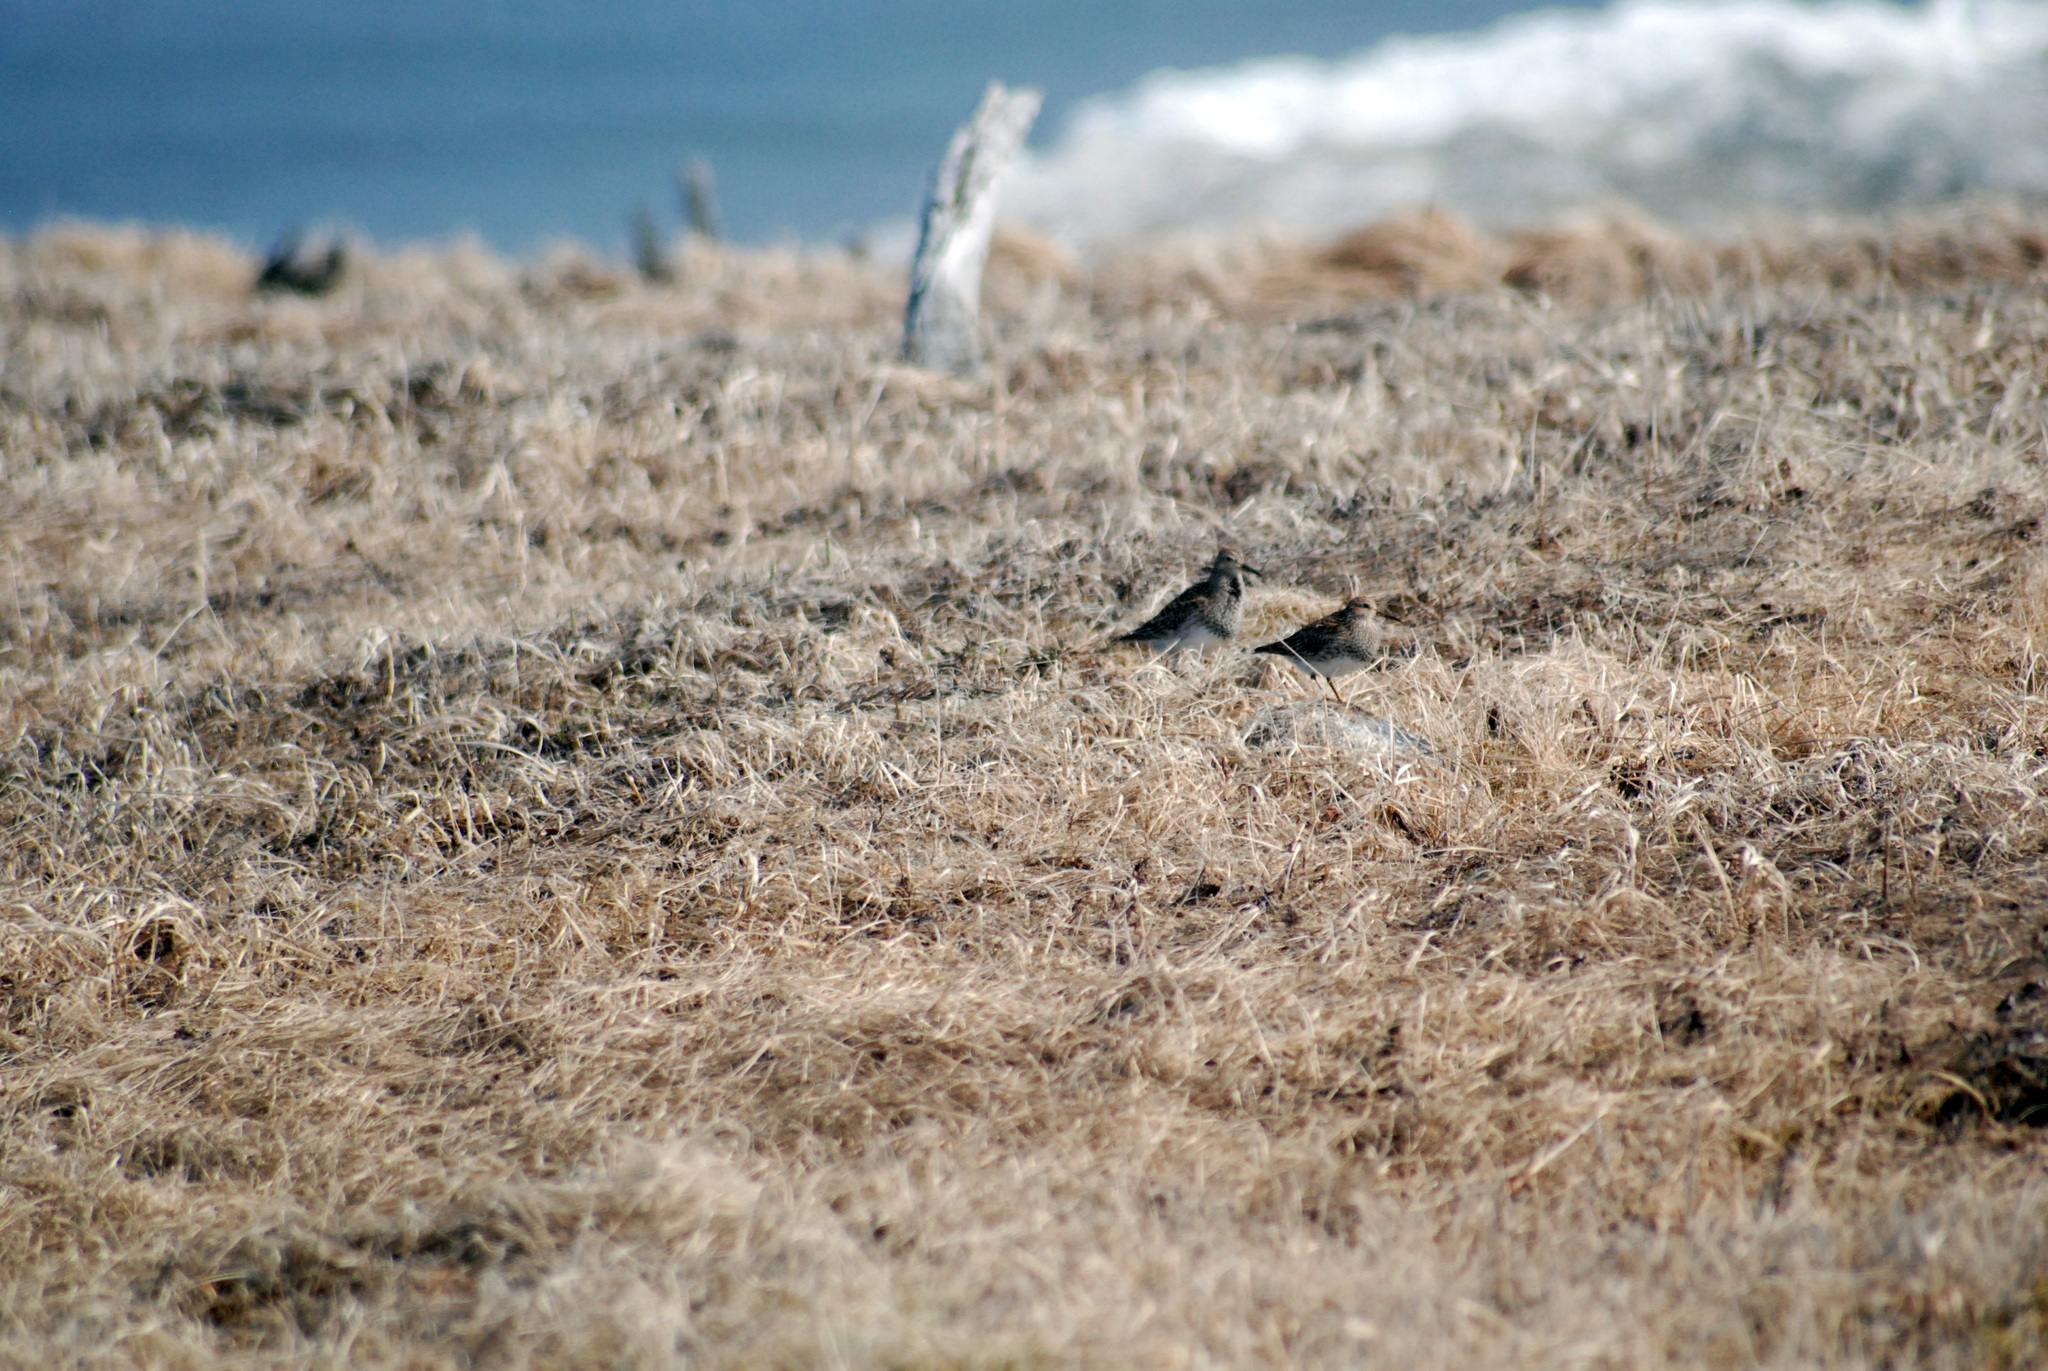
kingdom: Animalia
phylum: Chordata
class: Aves
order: Charadriiformes
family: Scolopacidae
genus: Calidris
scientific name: Calidris melanotos
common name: Pectoral sandpiper
